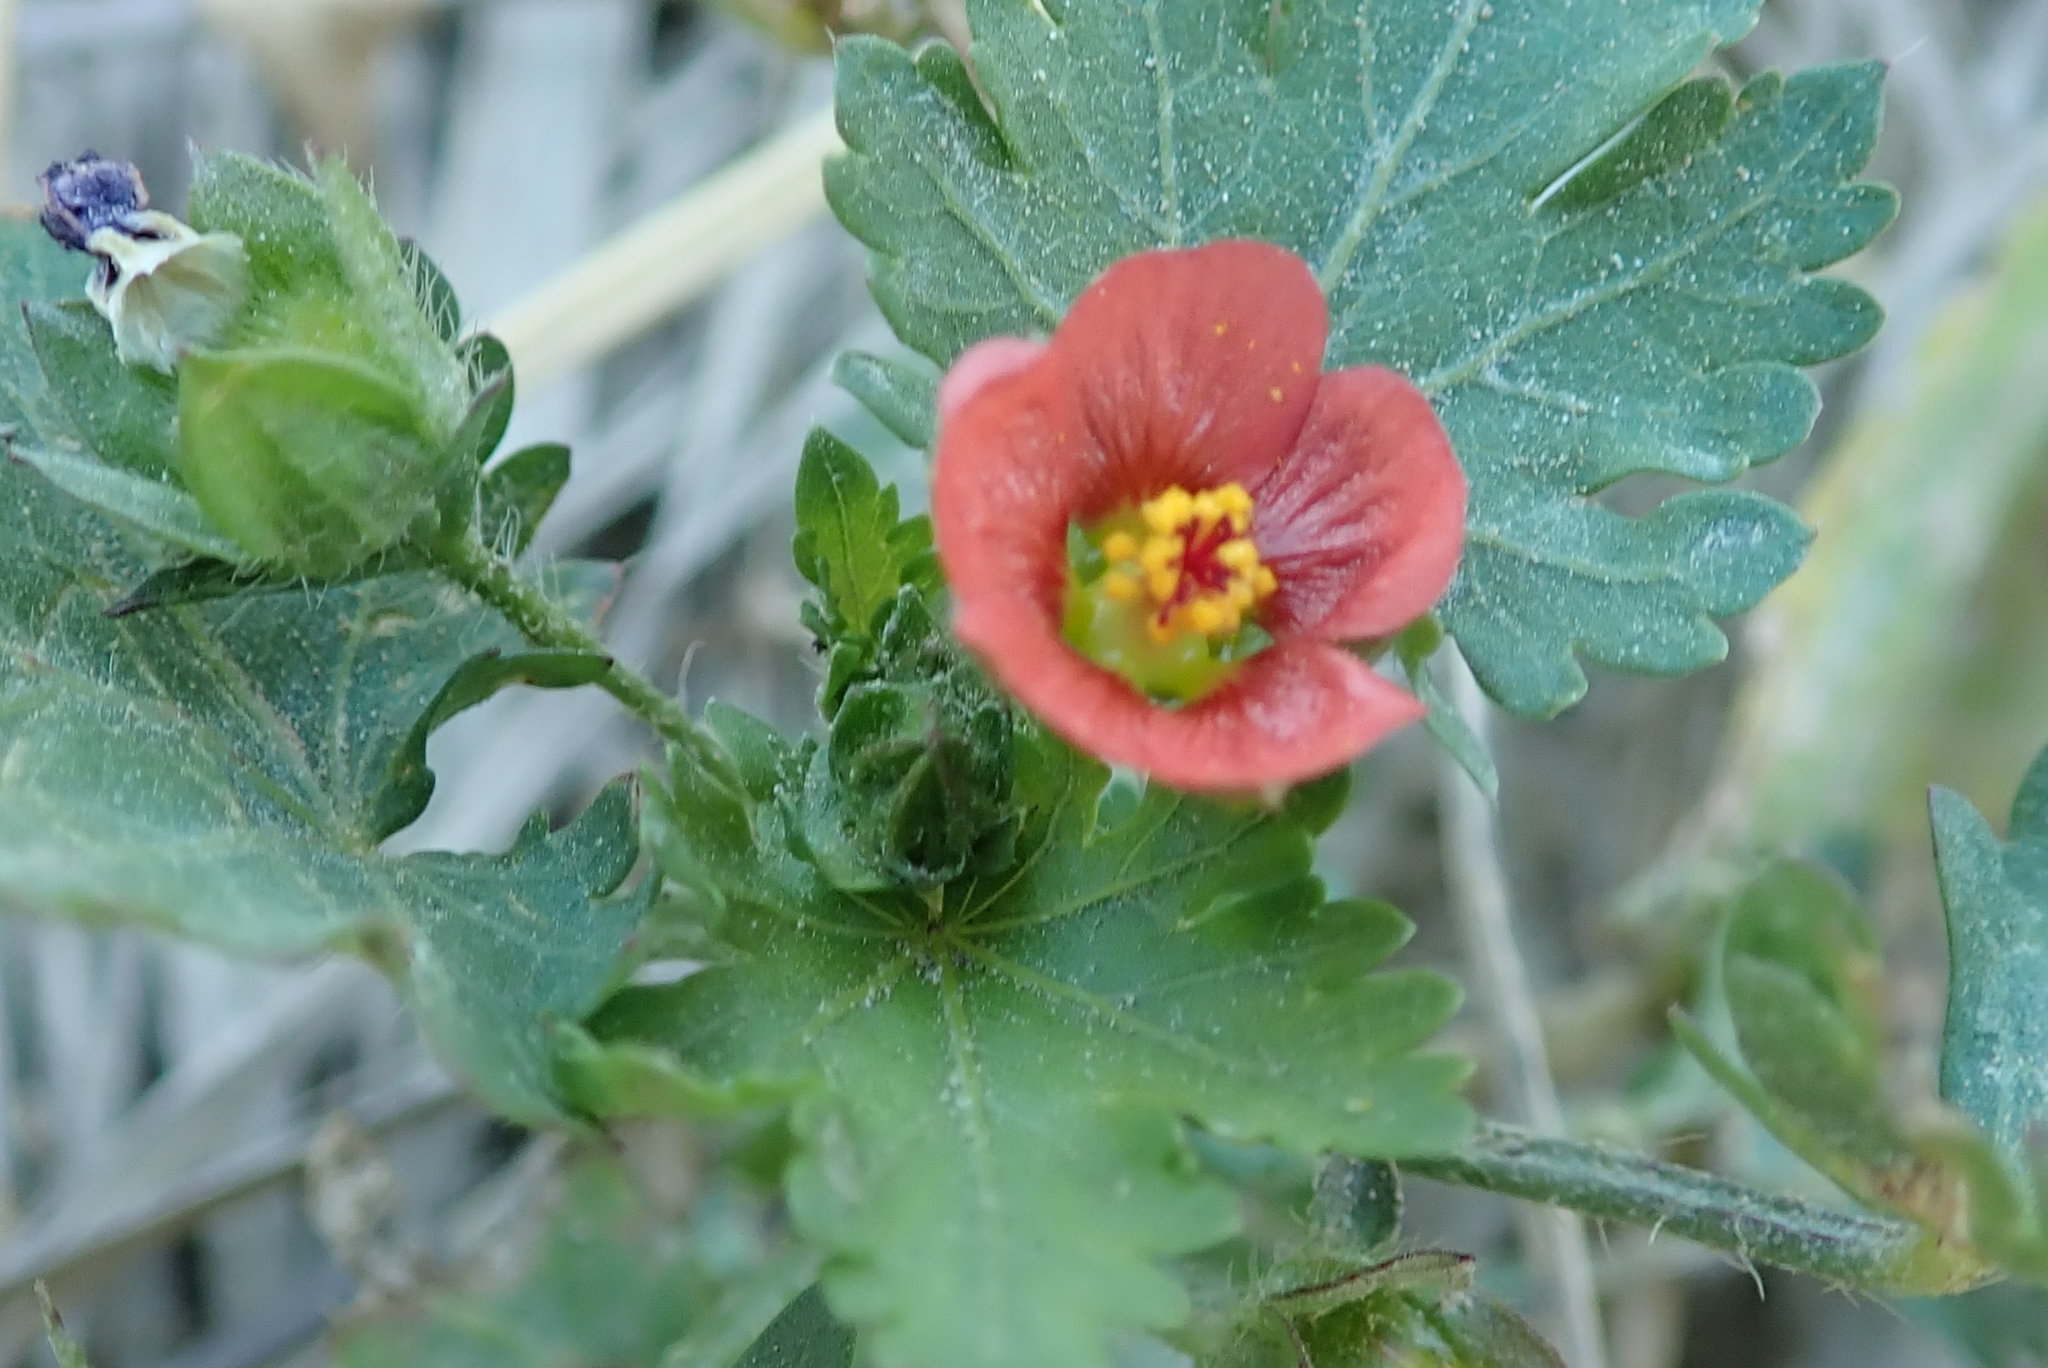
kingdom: Plantae
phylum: Tracheophyta
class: Magnoliopsida
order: Malvales
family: Malvaceae
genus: Modiola
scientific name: Modiola caroliniana
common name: Carolina bristlemallow
